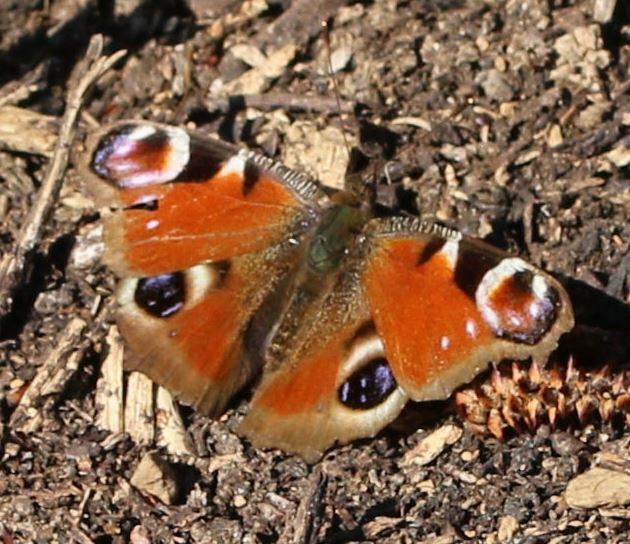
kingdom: Animalia
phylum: Arthropoda
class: Insecta
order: Lepidoptera
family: Nymphalidae
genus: Aglais
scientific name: Aglais io
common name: Peacock
